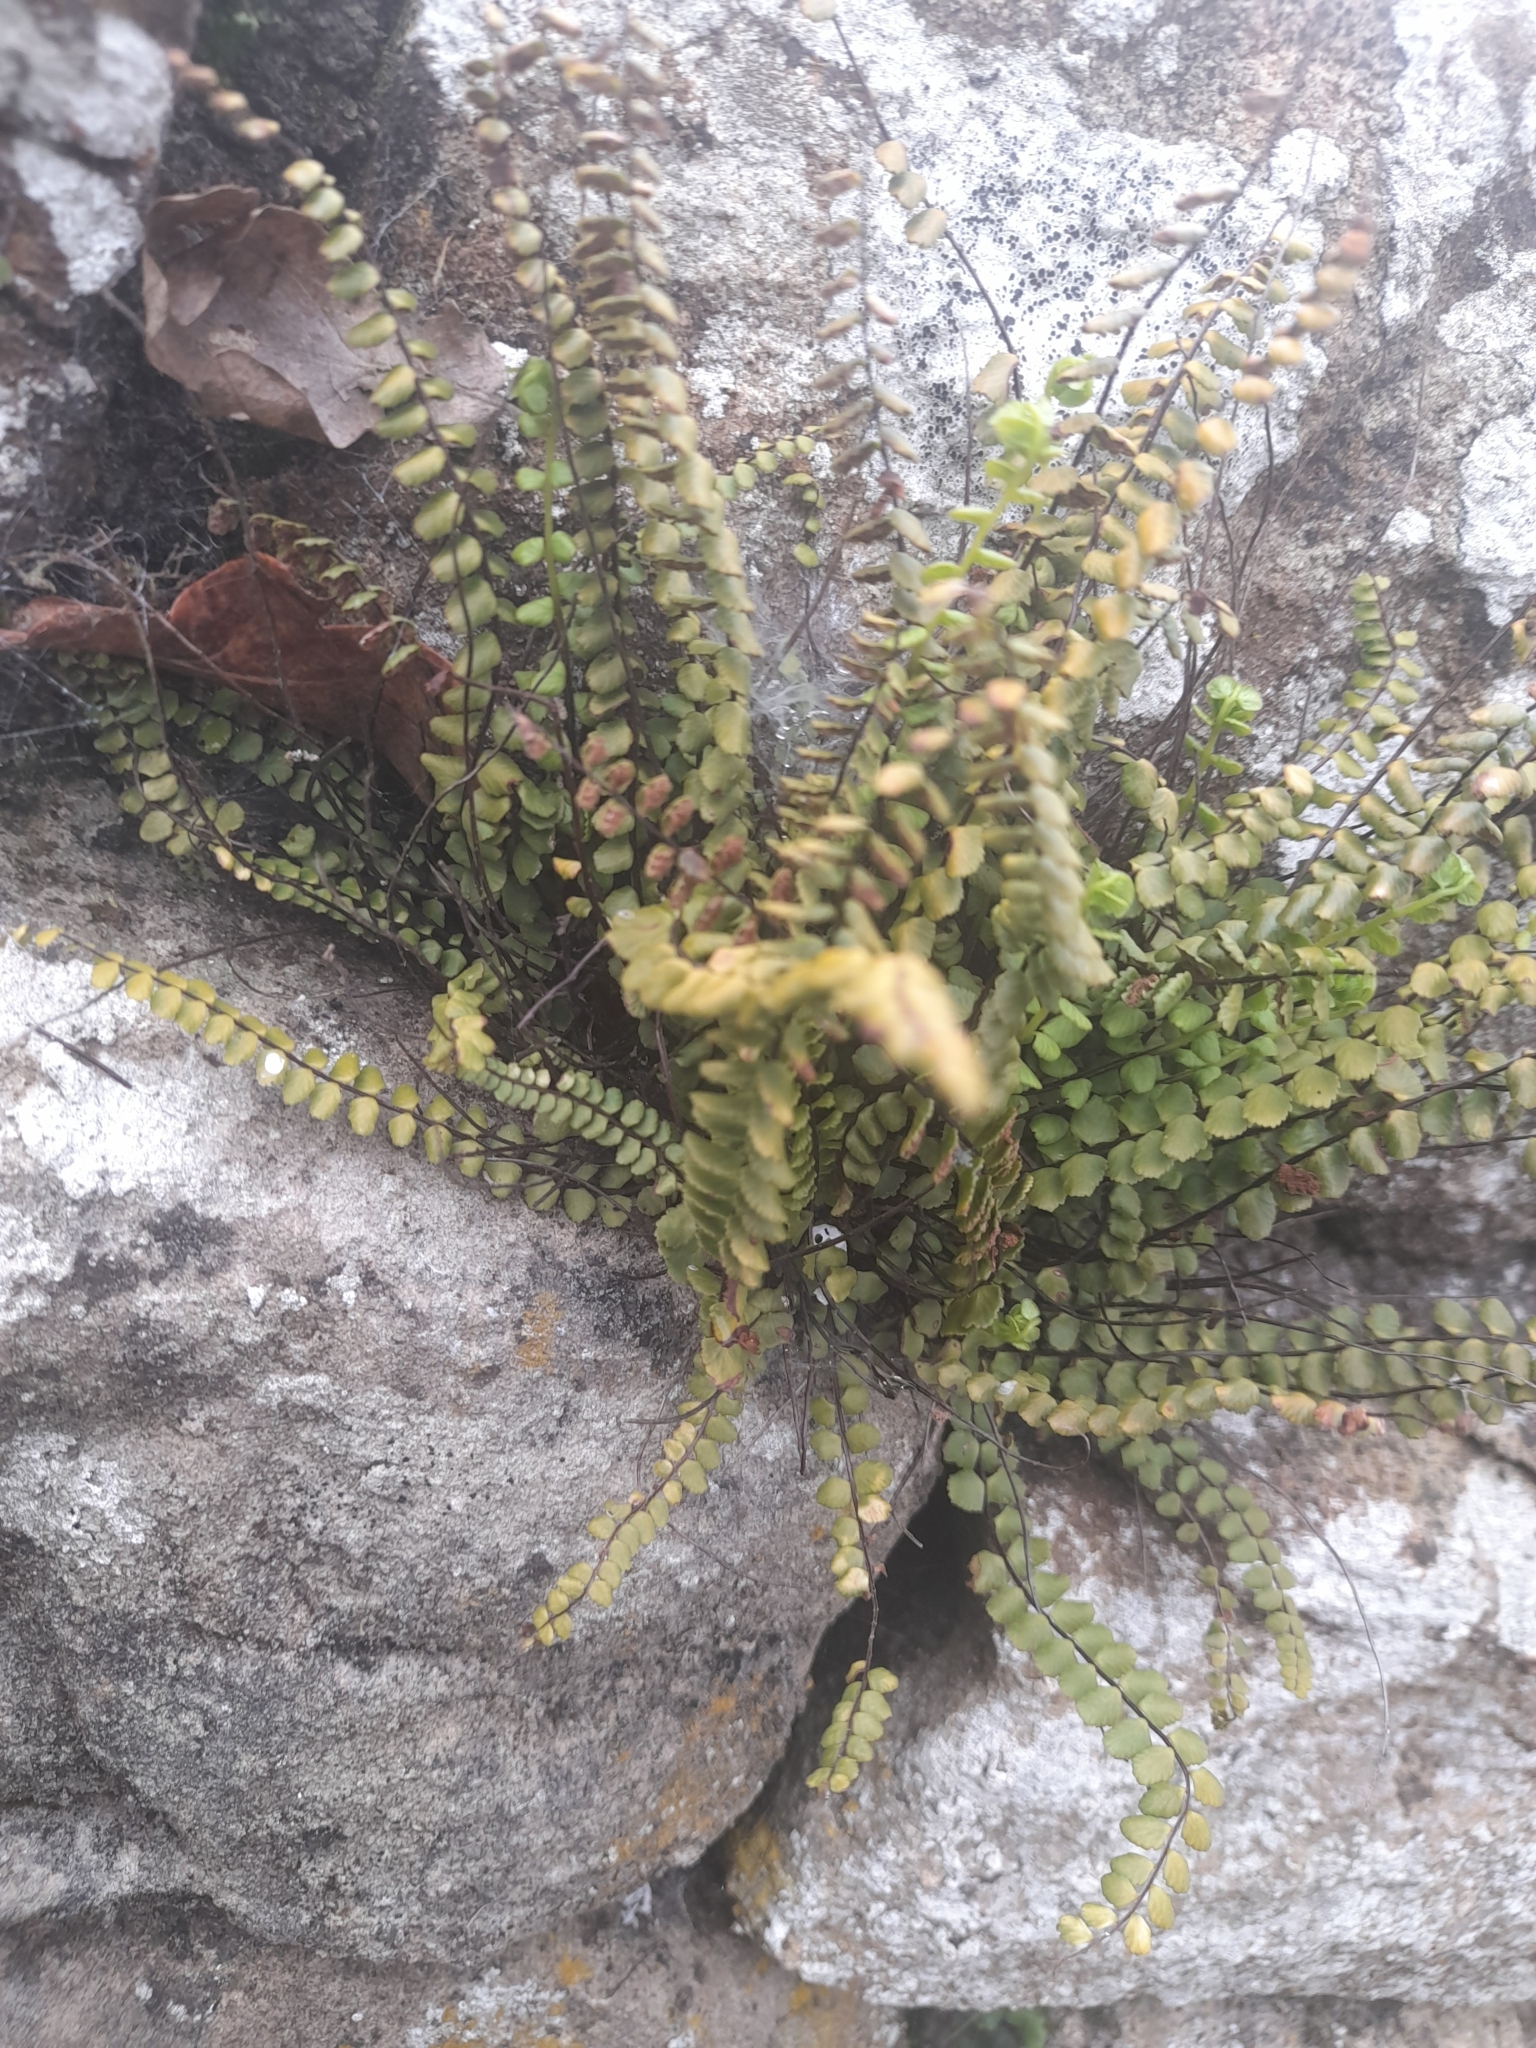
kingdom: Plantae
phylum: Tracheophyta
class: Polypodiopsida
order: Polypodiales
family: Aspleniaceae
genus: Asplenium
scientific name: Asplenium quadrivalens
